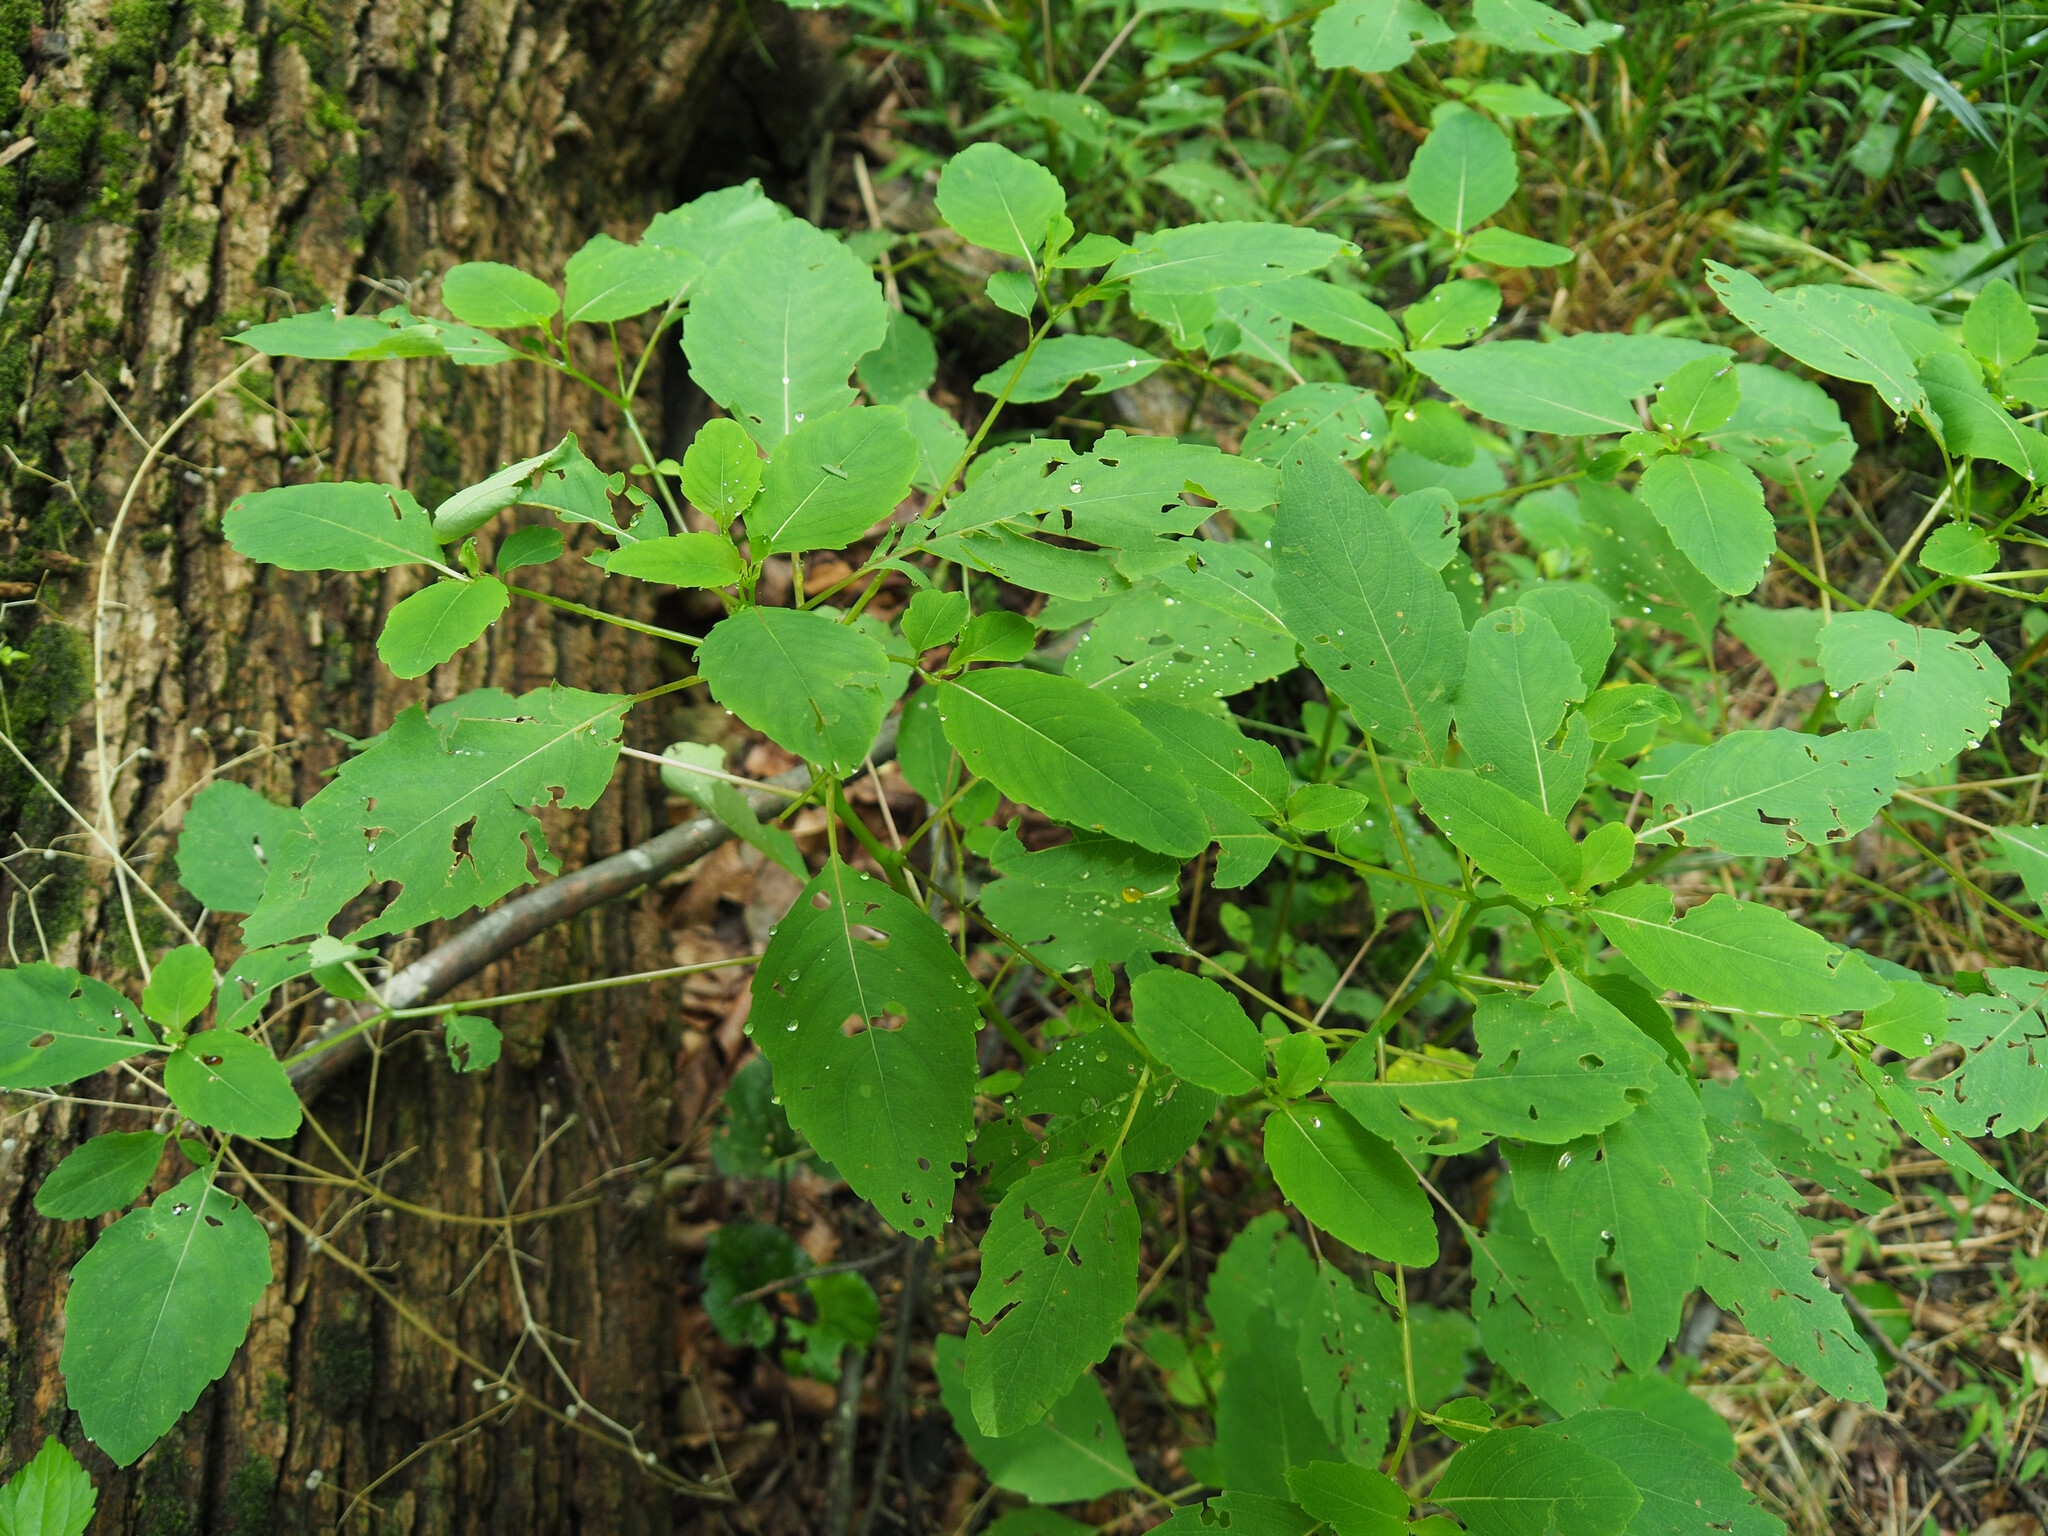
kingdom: Plantae
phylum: Tracheophyta
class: Magnoliopsida
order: Ericales
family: Balsaminaceae
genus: Impatiens
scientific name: Impatiens
